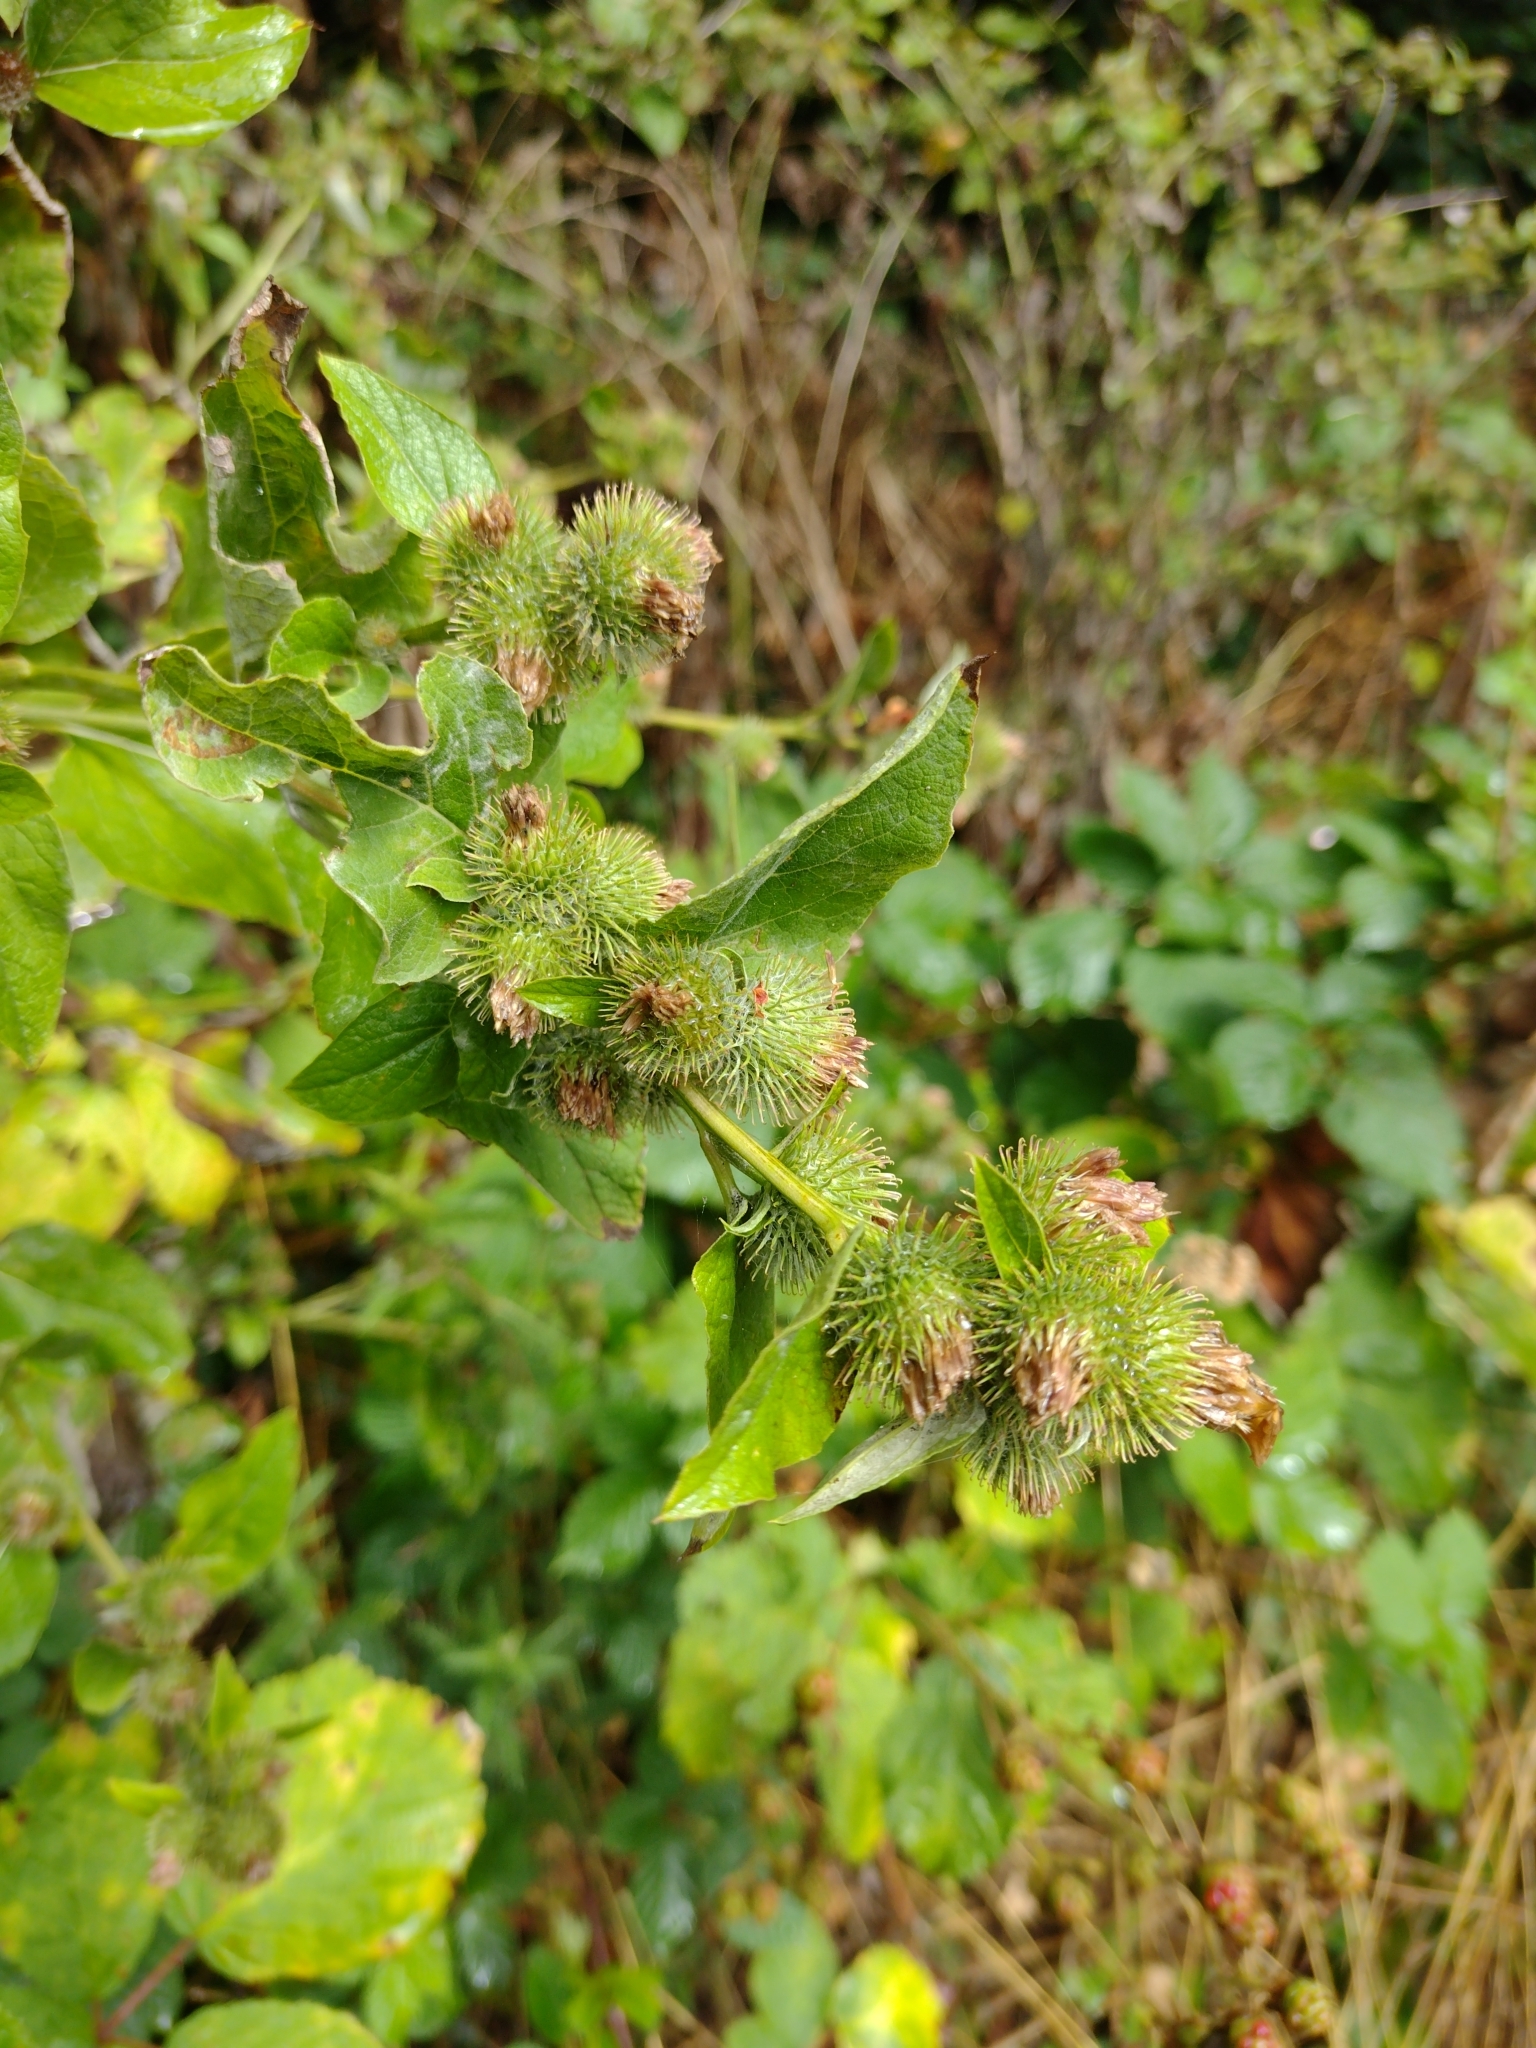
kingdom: Plantae
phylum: Tracheophyta
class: Magnoliopsida
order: Asterales
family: Asteraceae
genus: Arctium
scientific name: Arctium minus
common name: Lesser burdock
